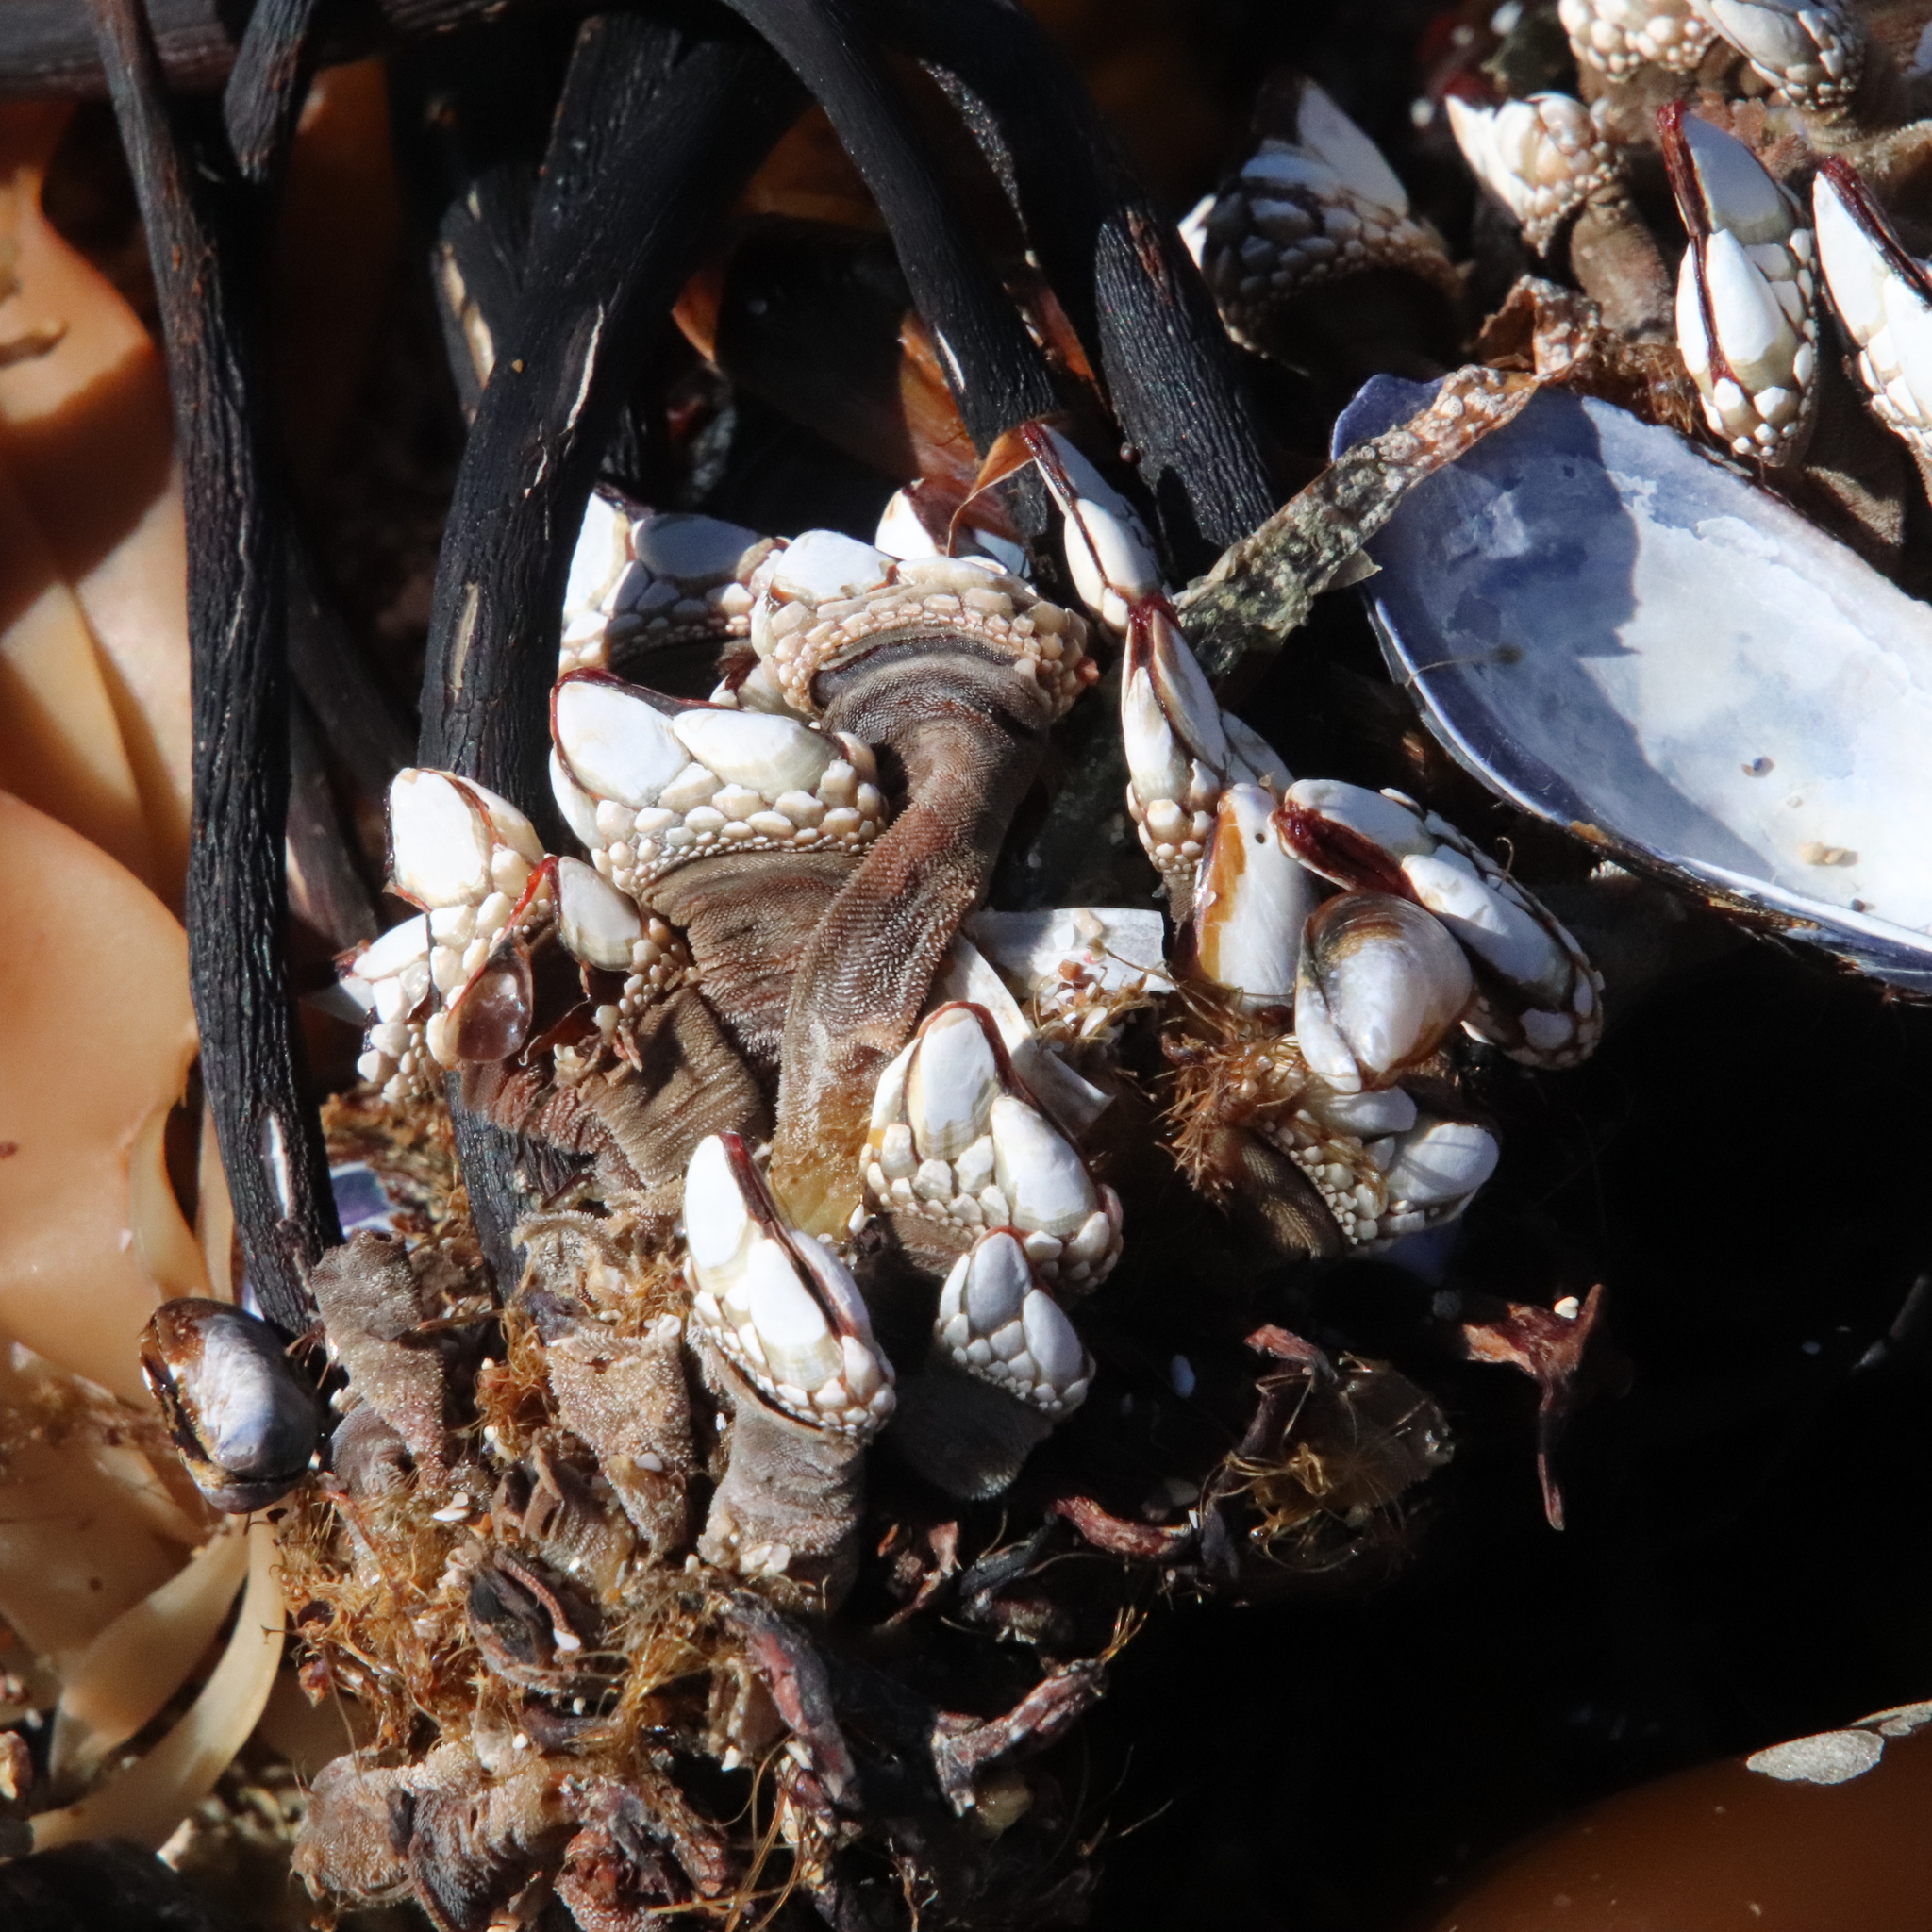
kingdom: Animalia
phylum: Arthropoda
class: Maxillopoda
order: Pedunculata
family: Pollicipedidae
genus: Pollicipes
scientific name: Pollicipes polymerus
